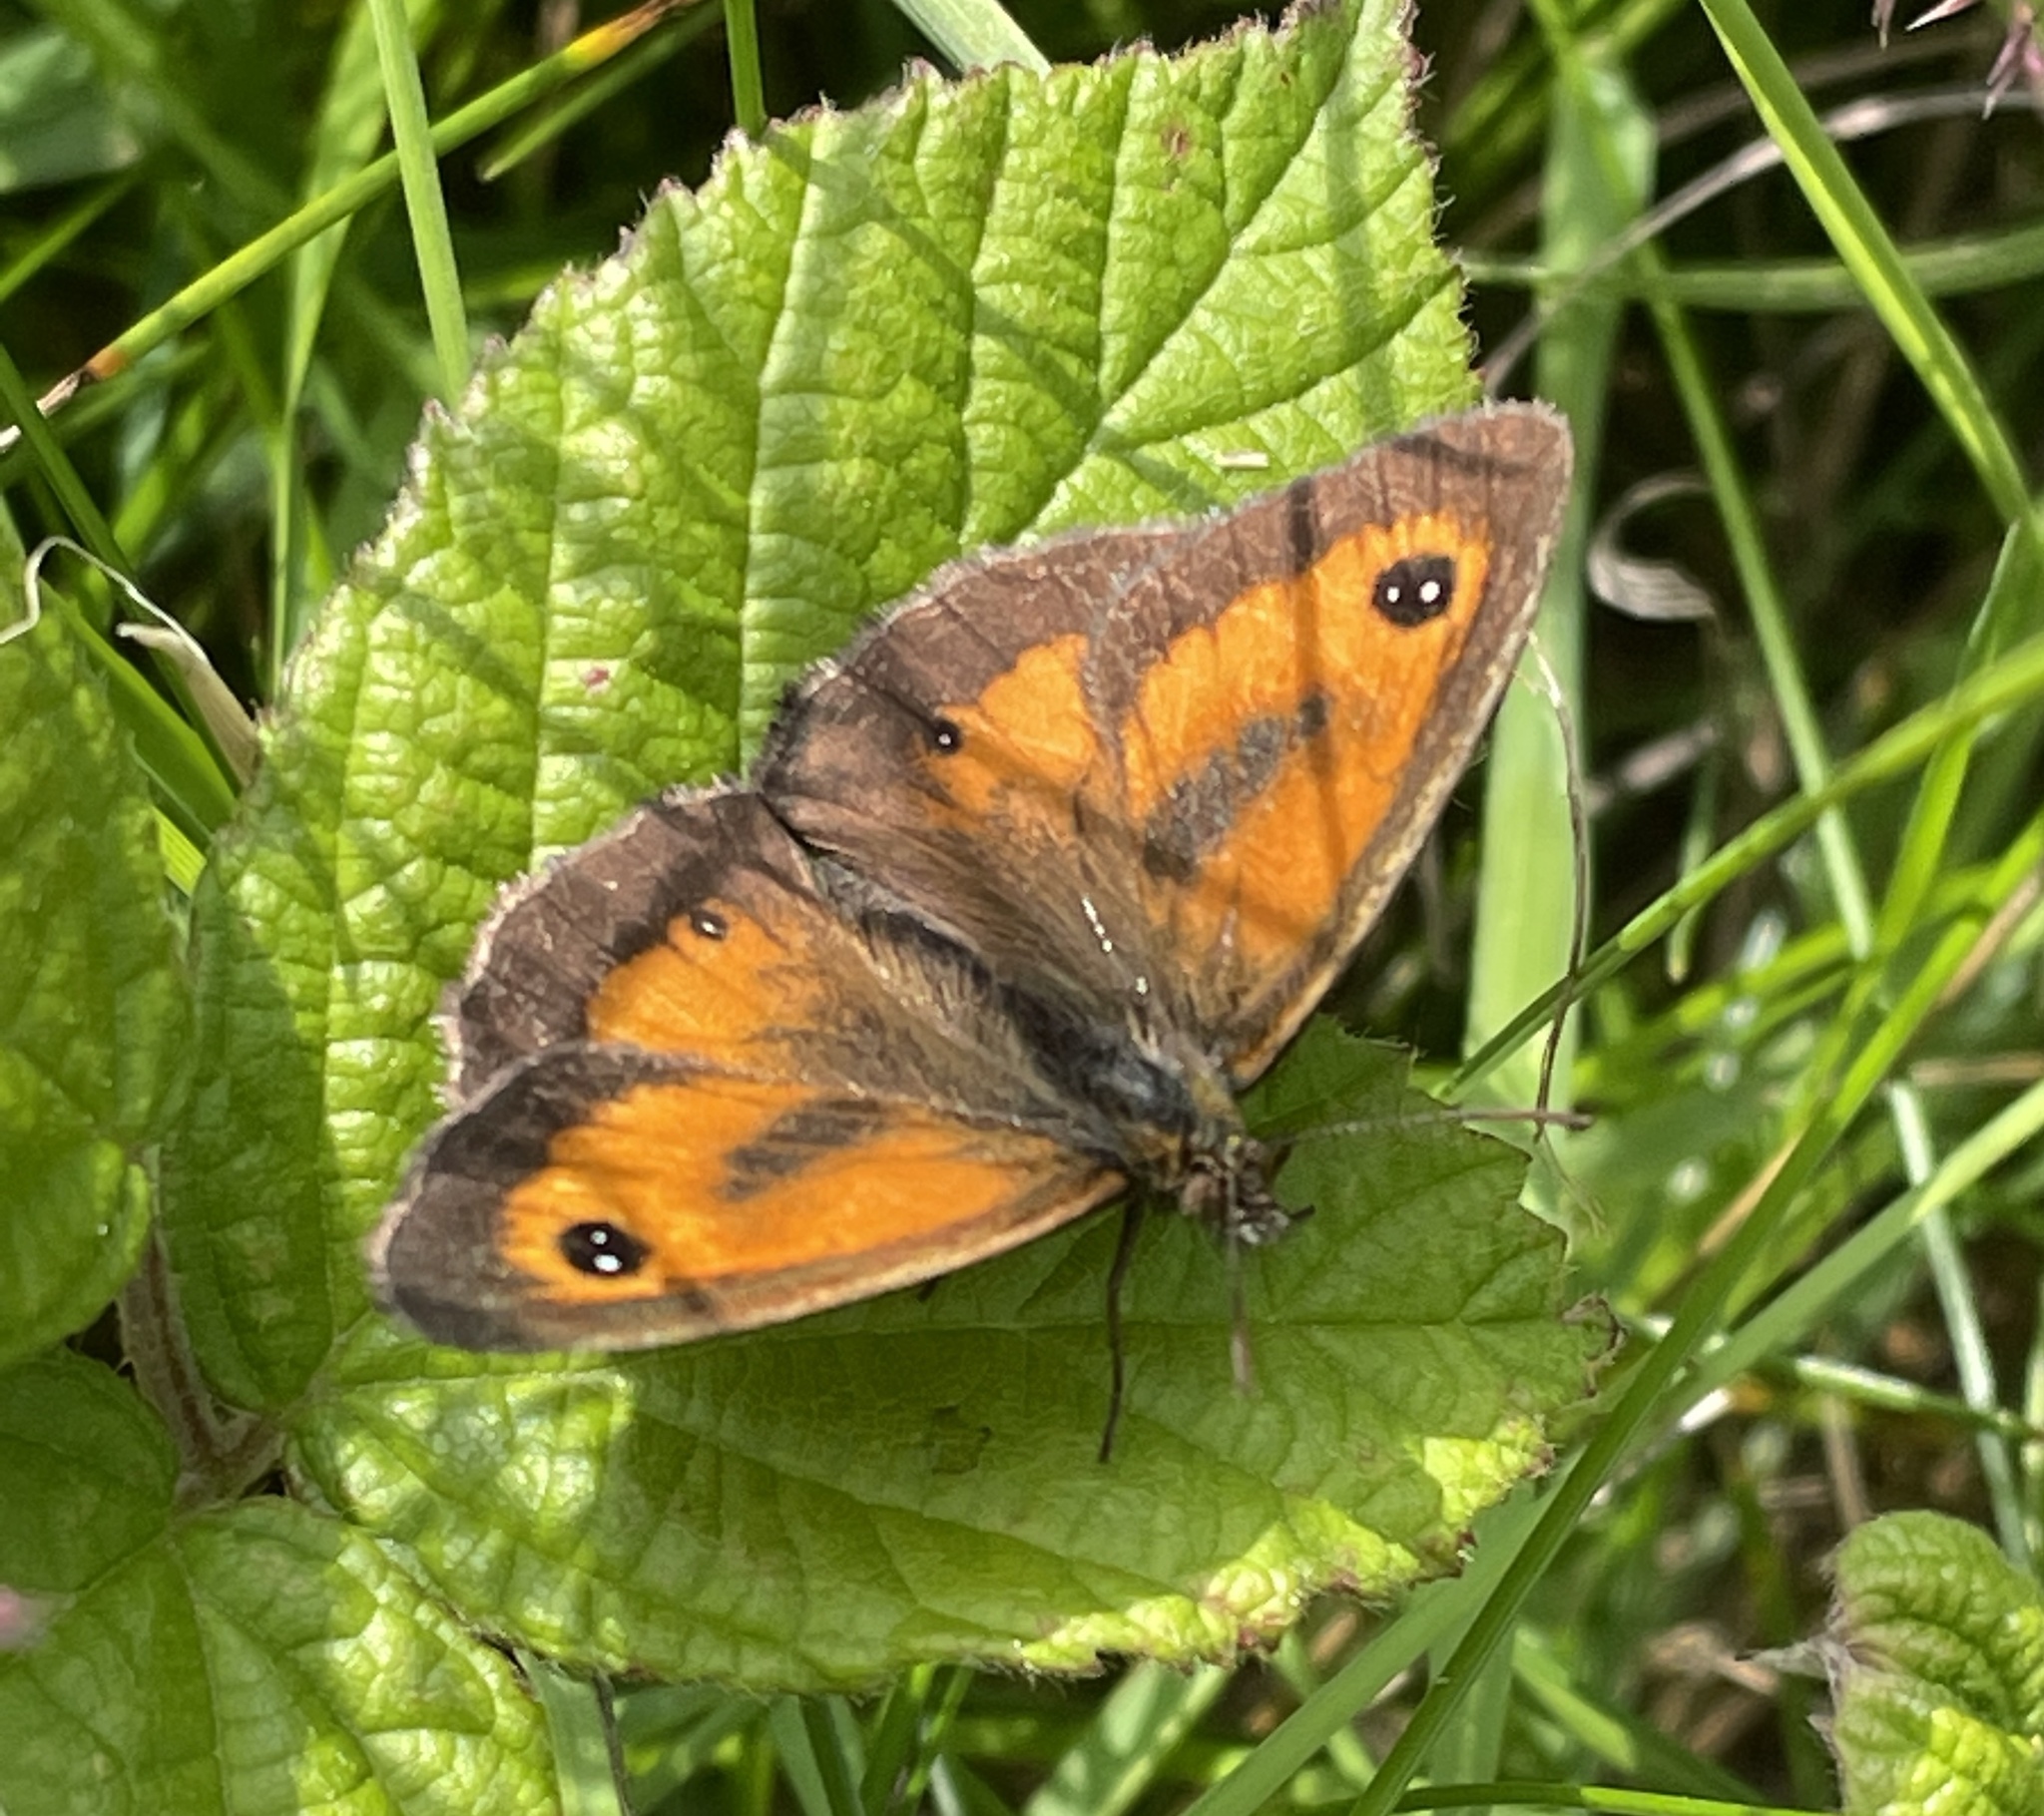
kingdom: Animalia
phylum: Arthropoda
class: Insecta
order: Lepidoptera
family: Nymphalidae
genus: Pyronia
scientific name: Pyronia tithonus
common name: Gatekeeper
